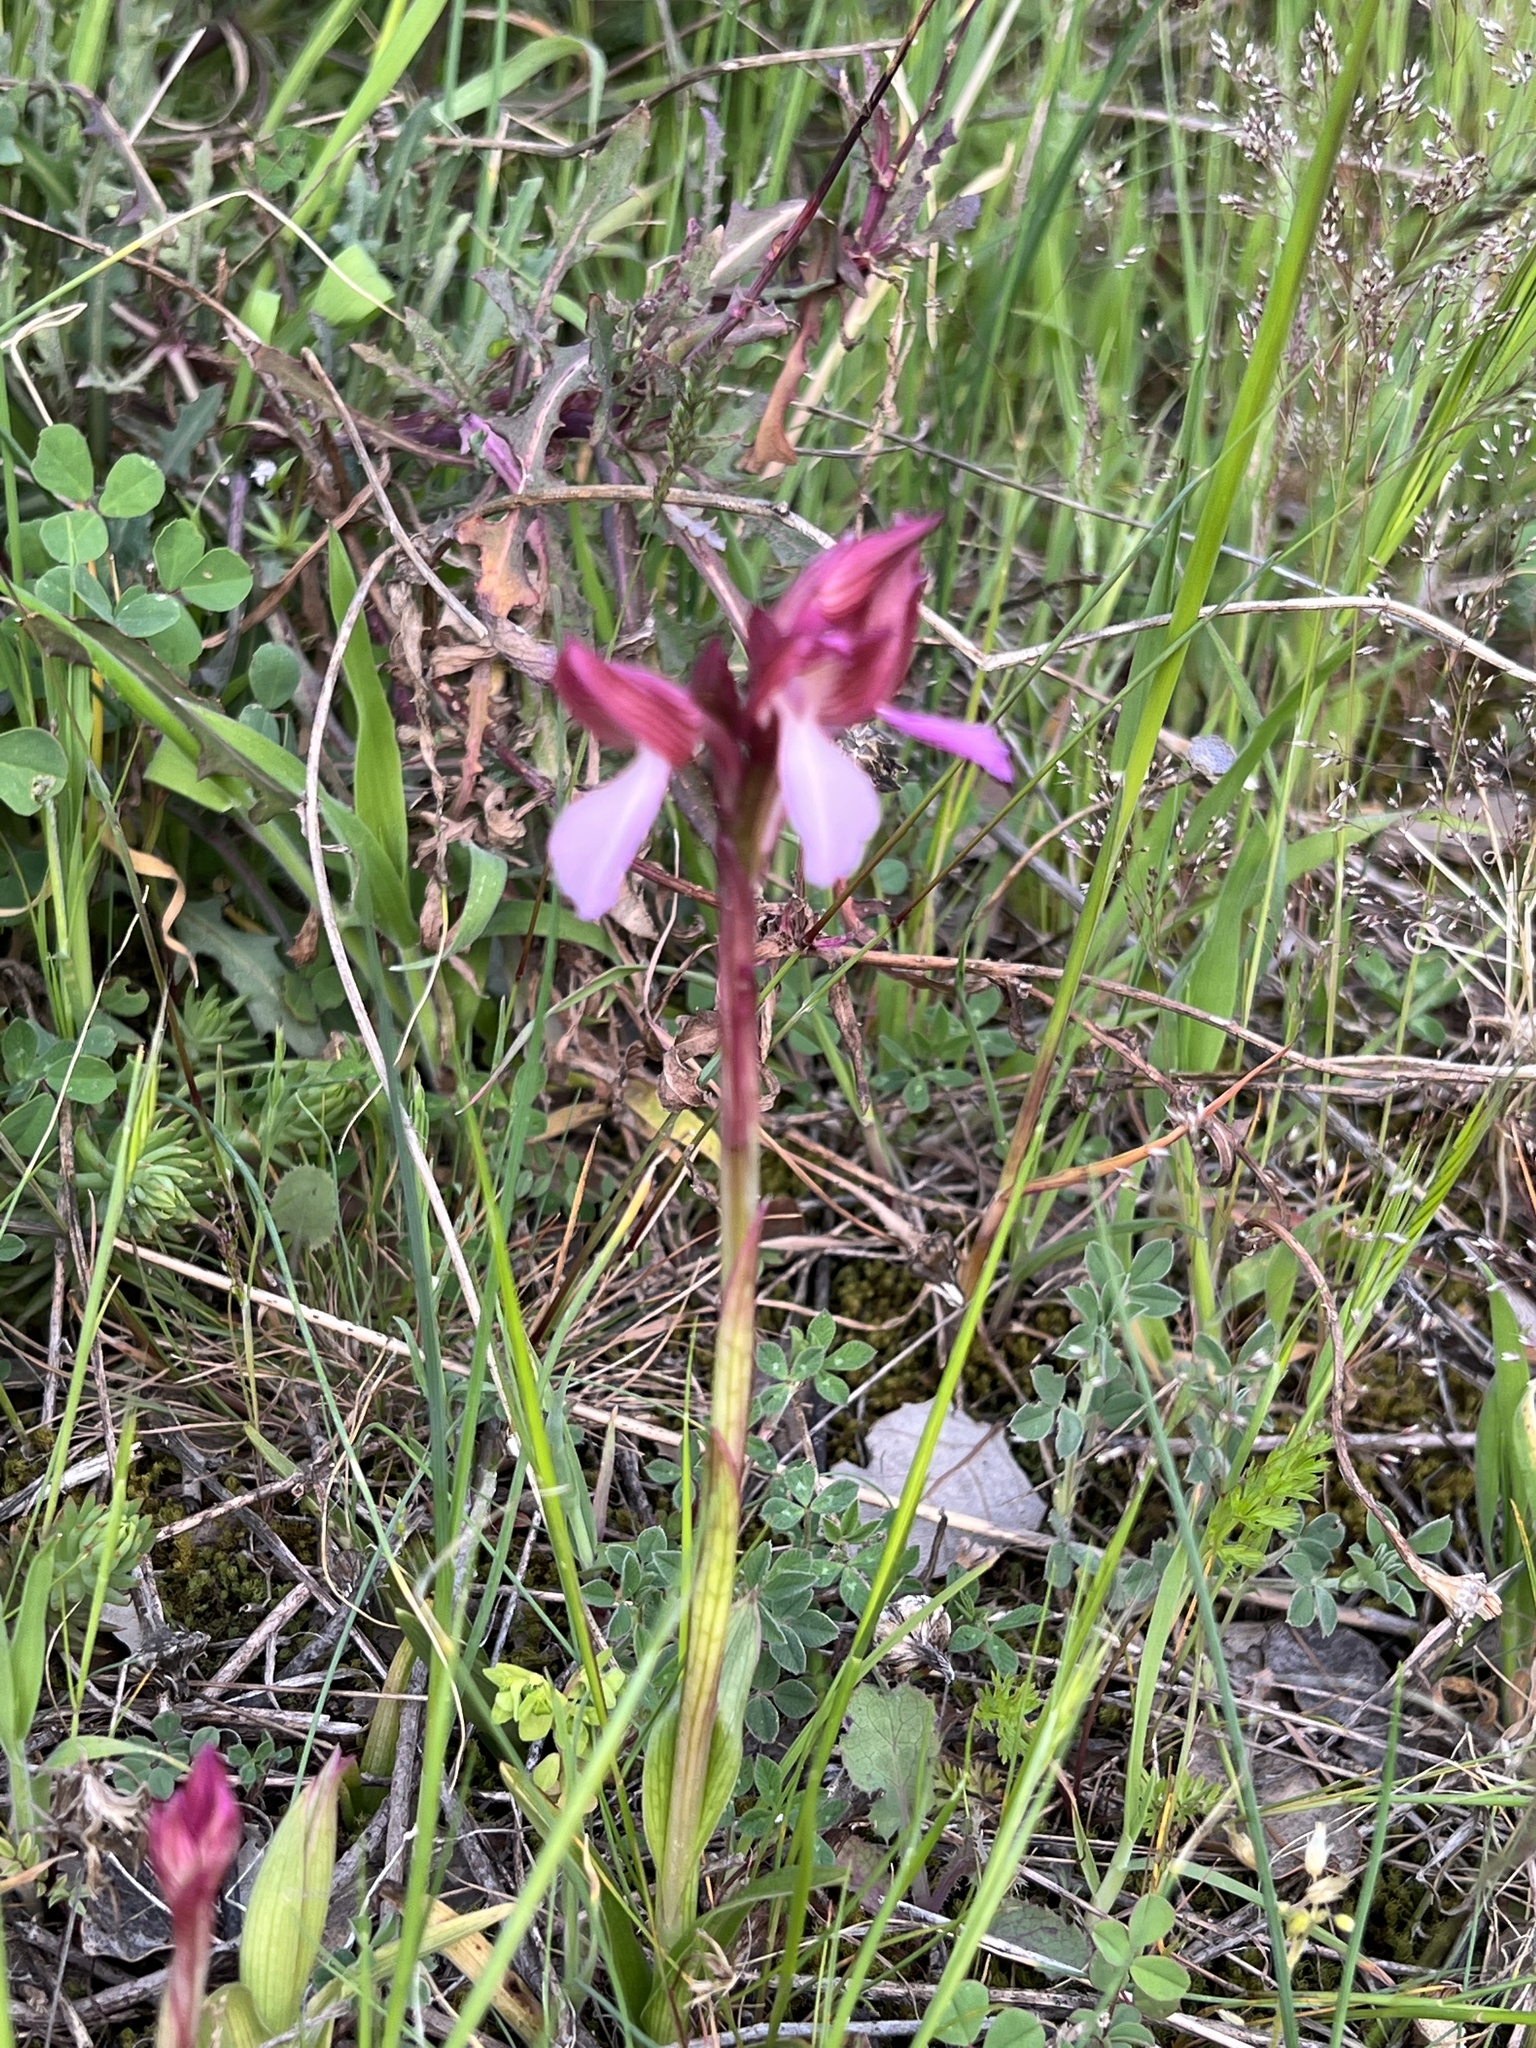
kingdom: Plantae
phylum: Tracheophyta
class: Liliopsida
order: Asparagales
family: Orchidaceae
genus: Anacamptis
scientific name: Anacamptis papilionacea
